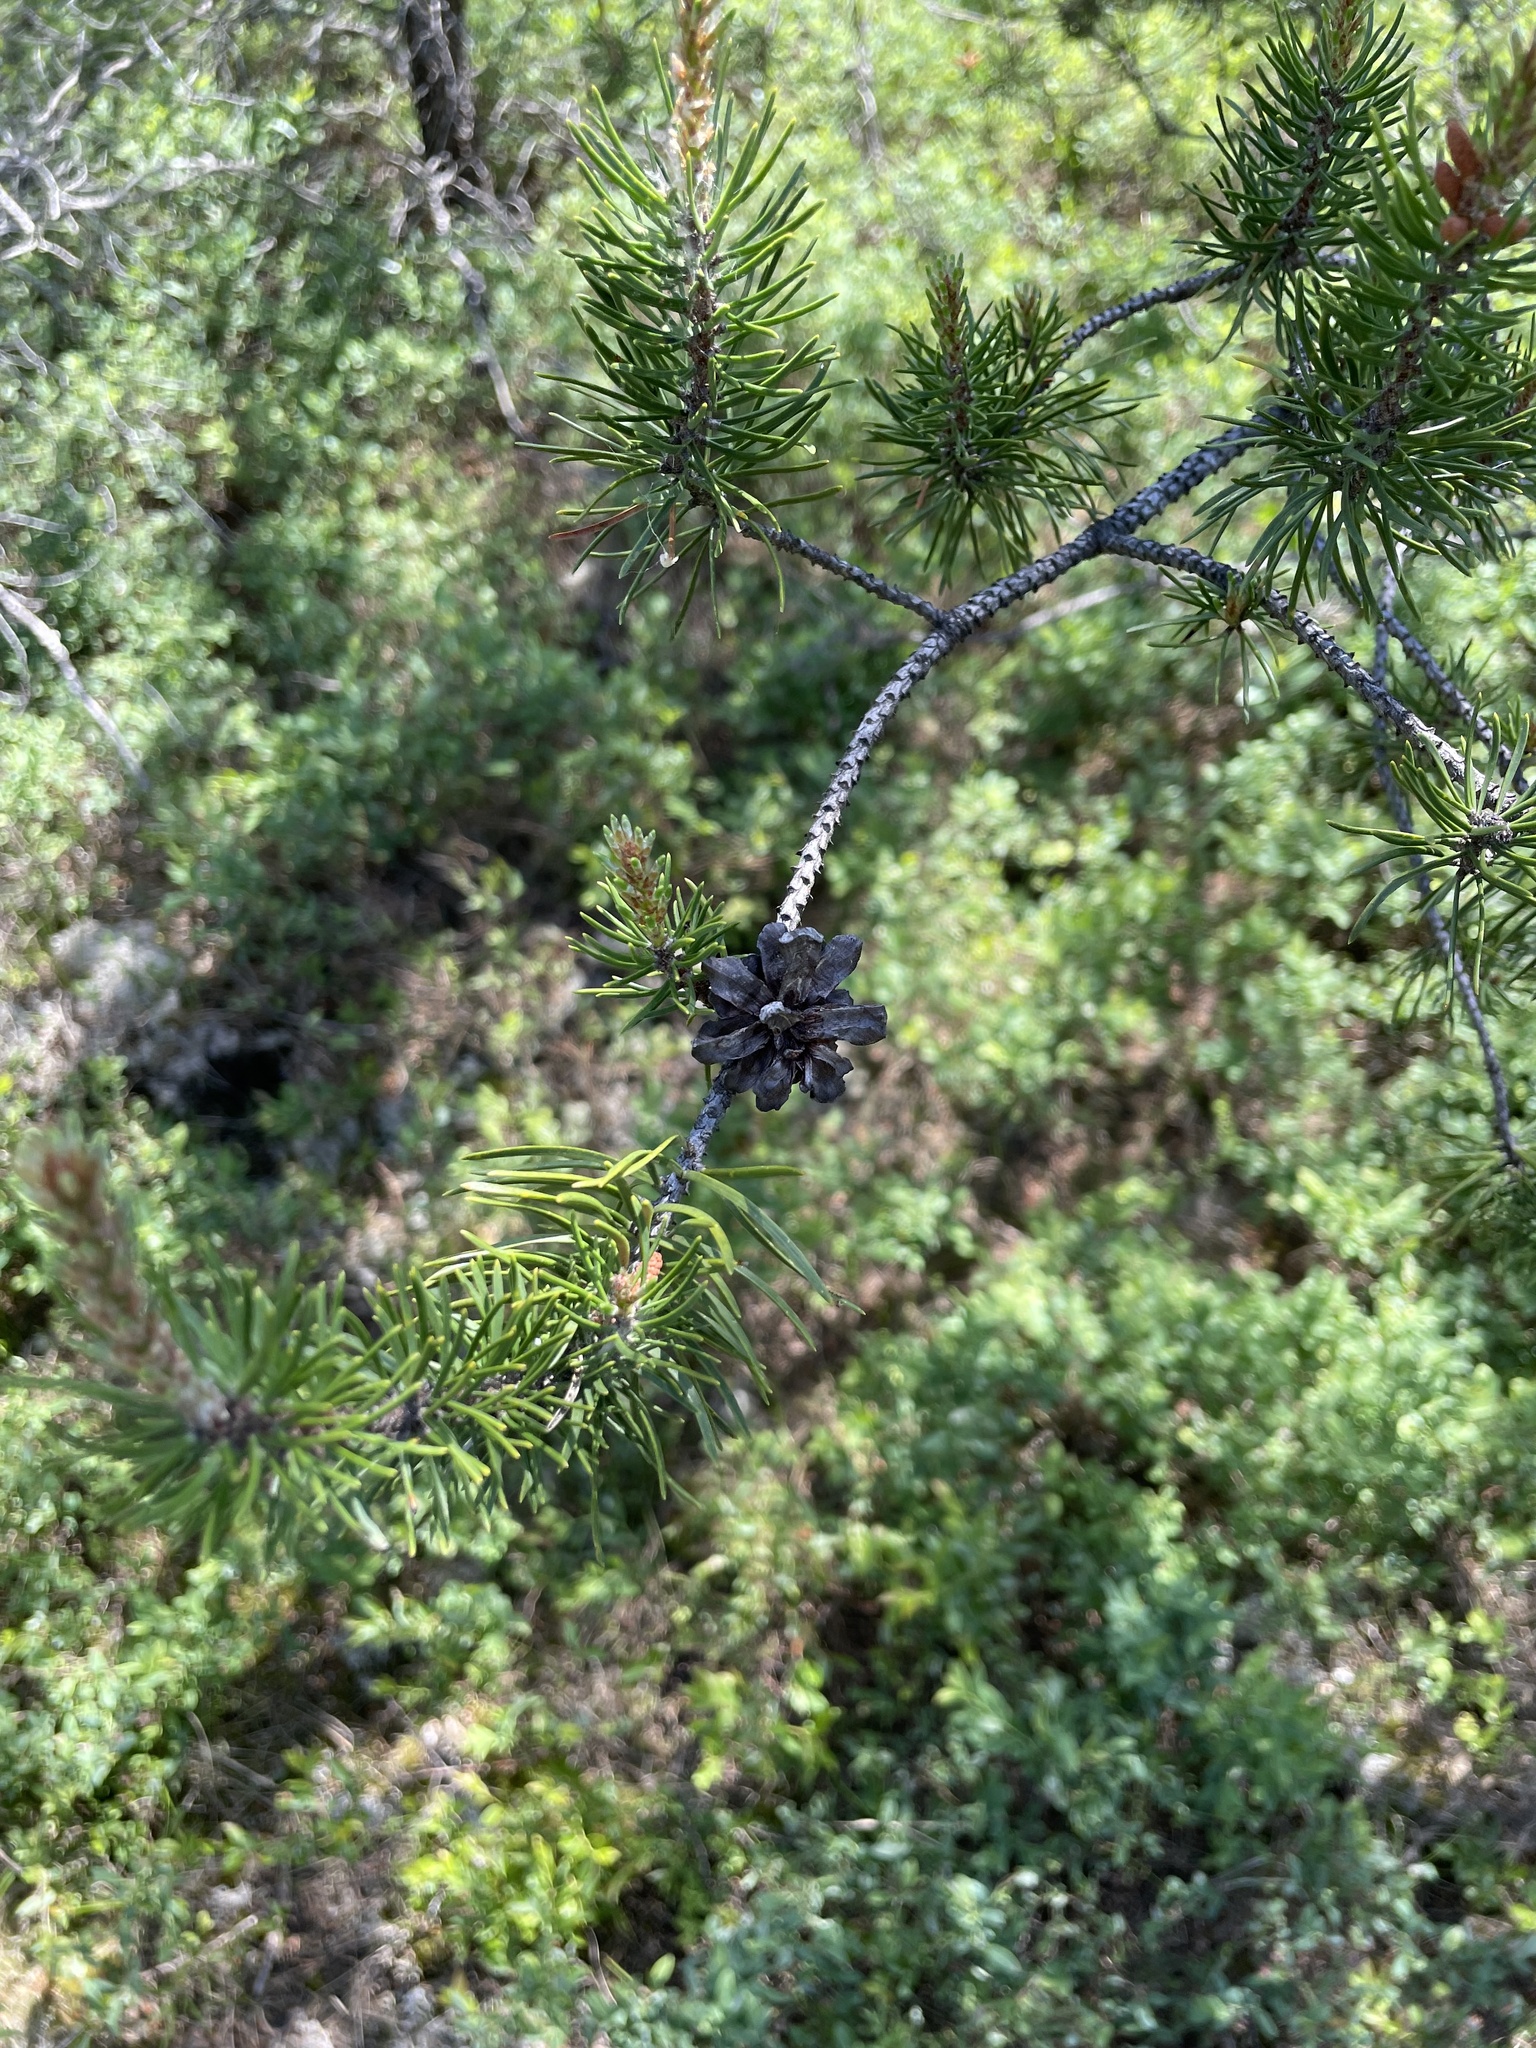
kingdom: Plantae
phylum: Tracheophyta
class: Pinopsida
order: Pinales
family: Pinaceae
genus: Pinus
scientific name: Pinus banksiana
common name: Jack pine
